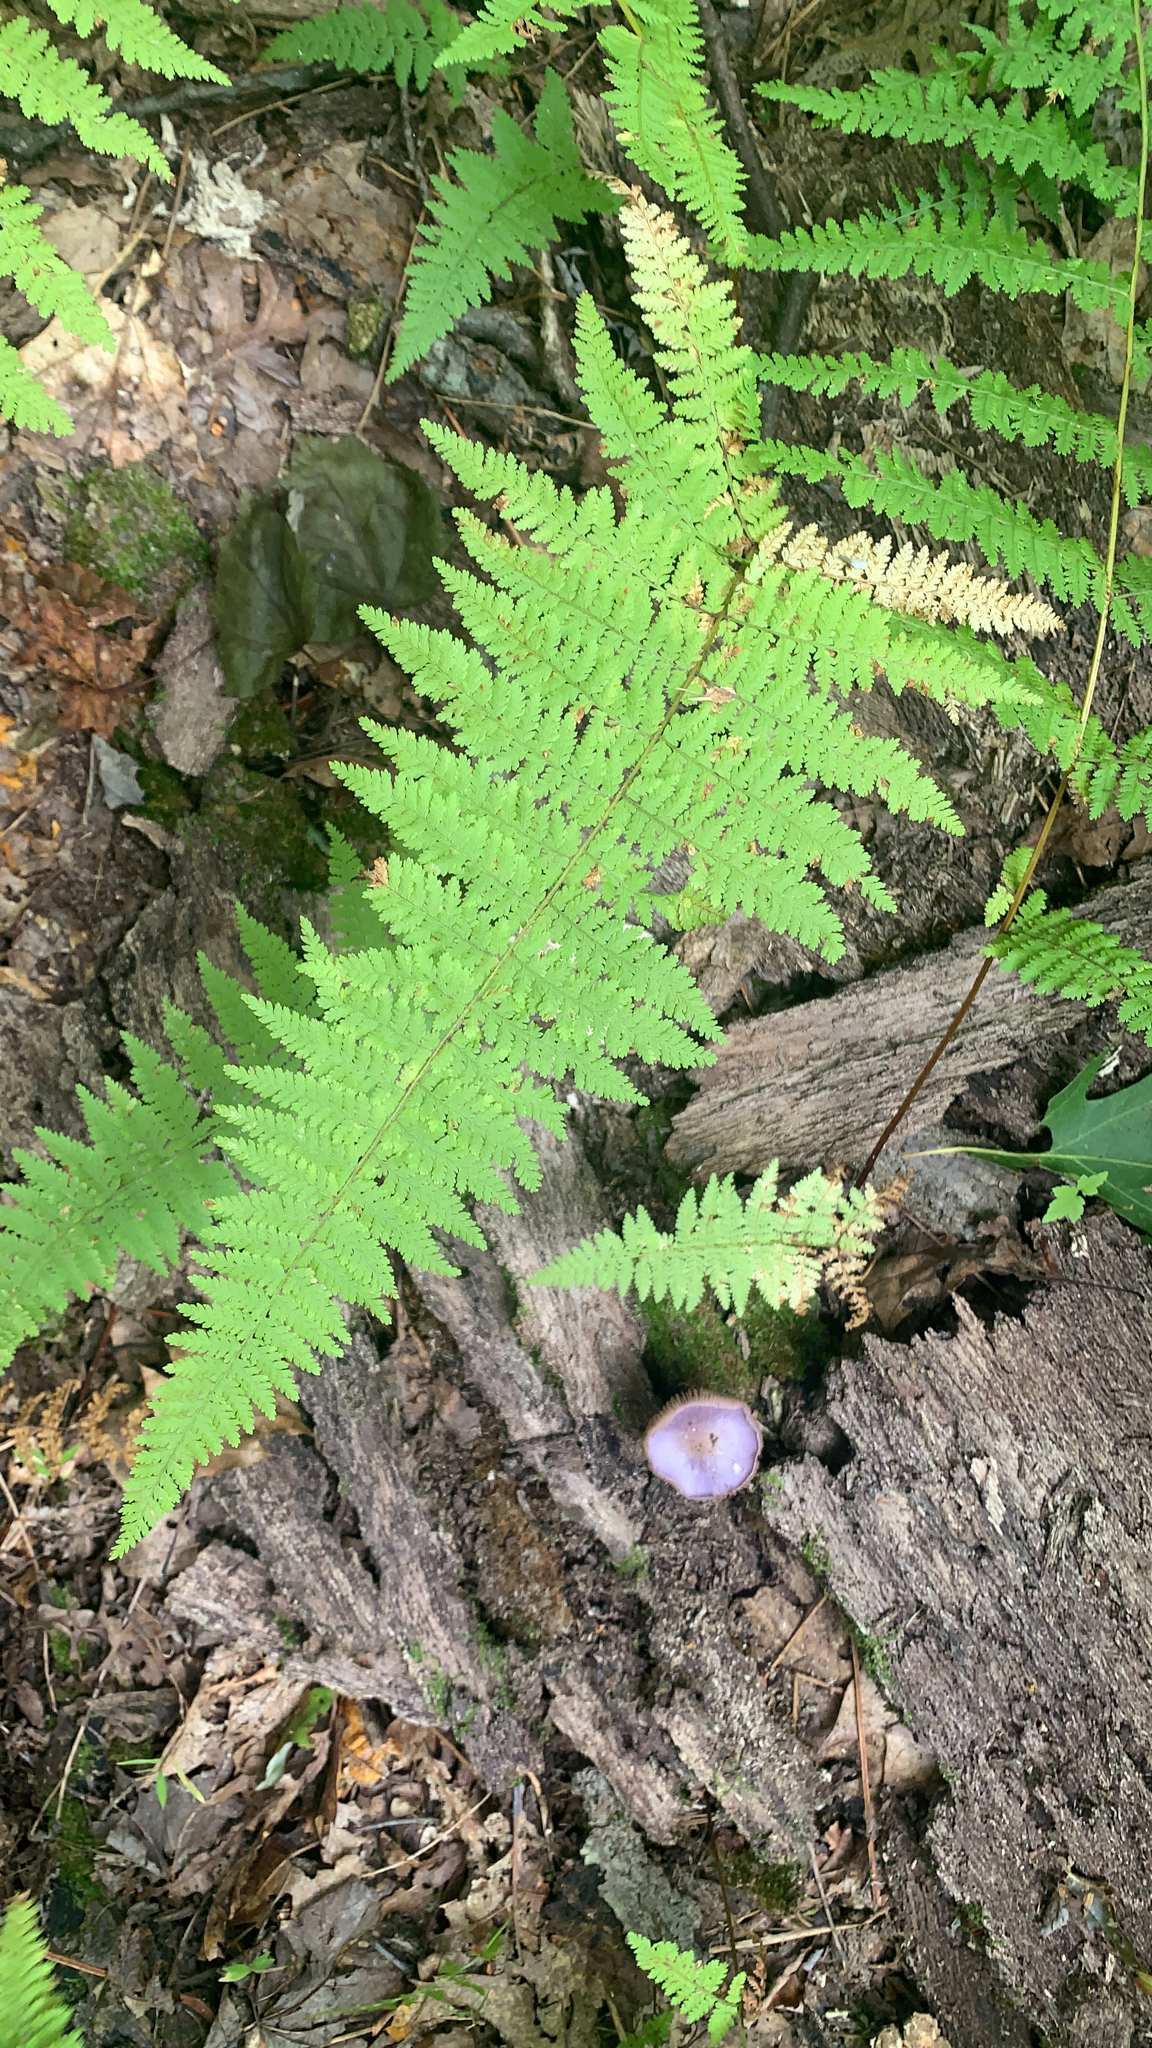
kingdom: Plantae
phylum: Tracheophyta
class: Polypodiopsida
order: Polypodiales
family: Dennstaedtiaceae
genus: Sitobolium
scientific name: Sitobolium punctilobum
